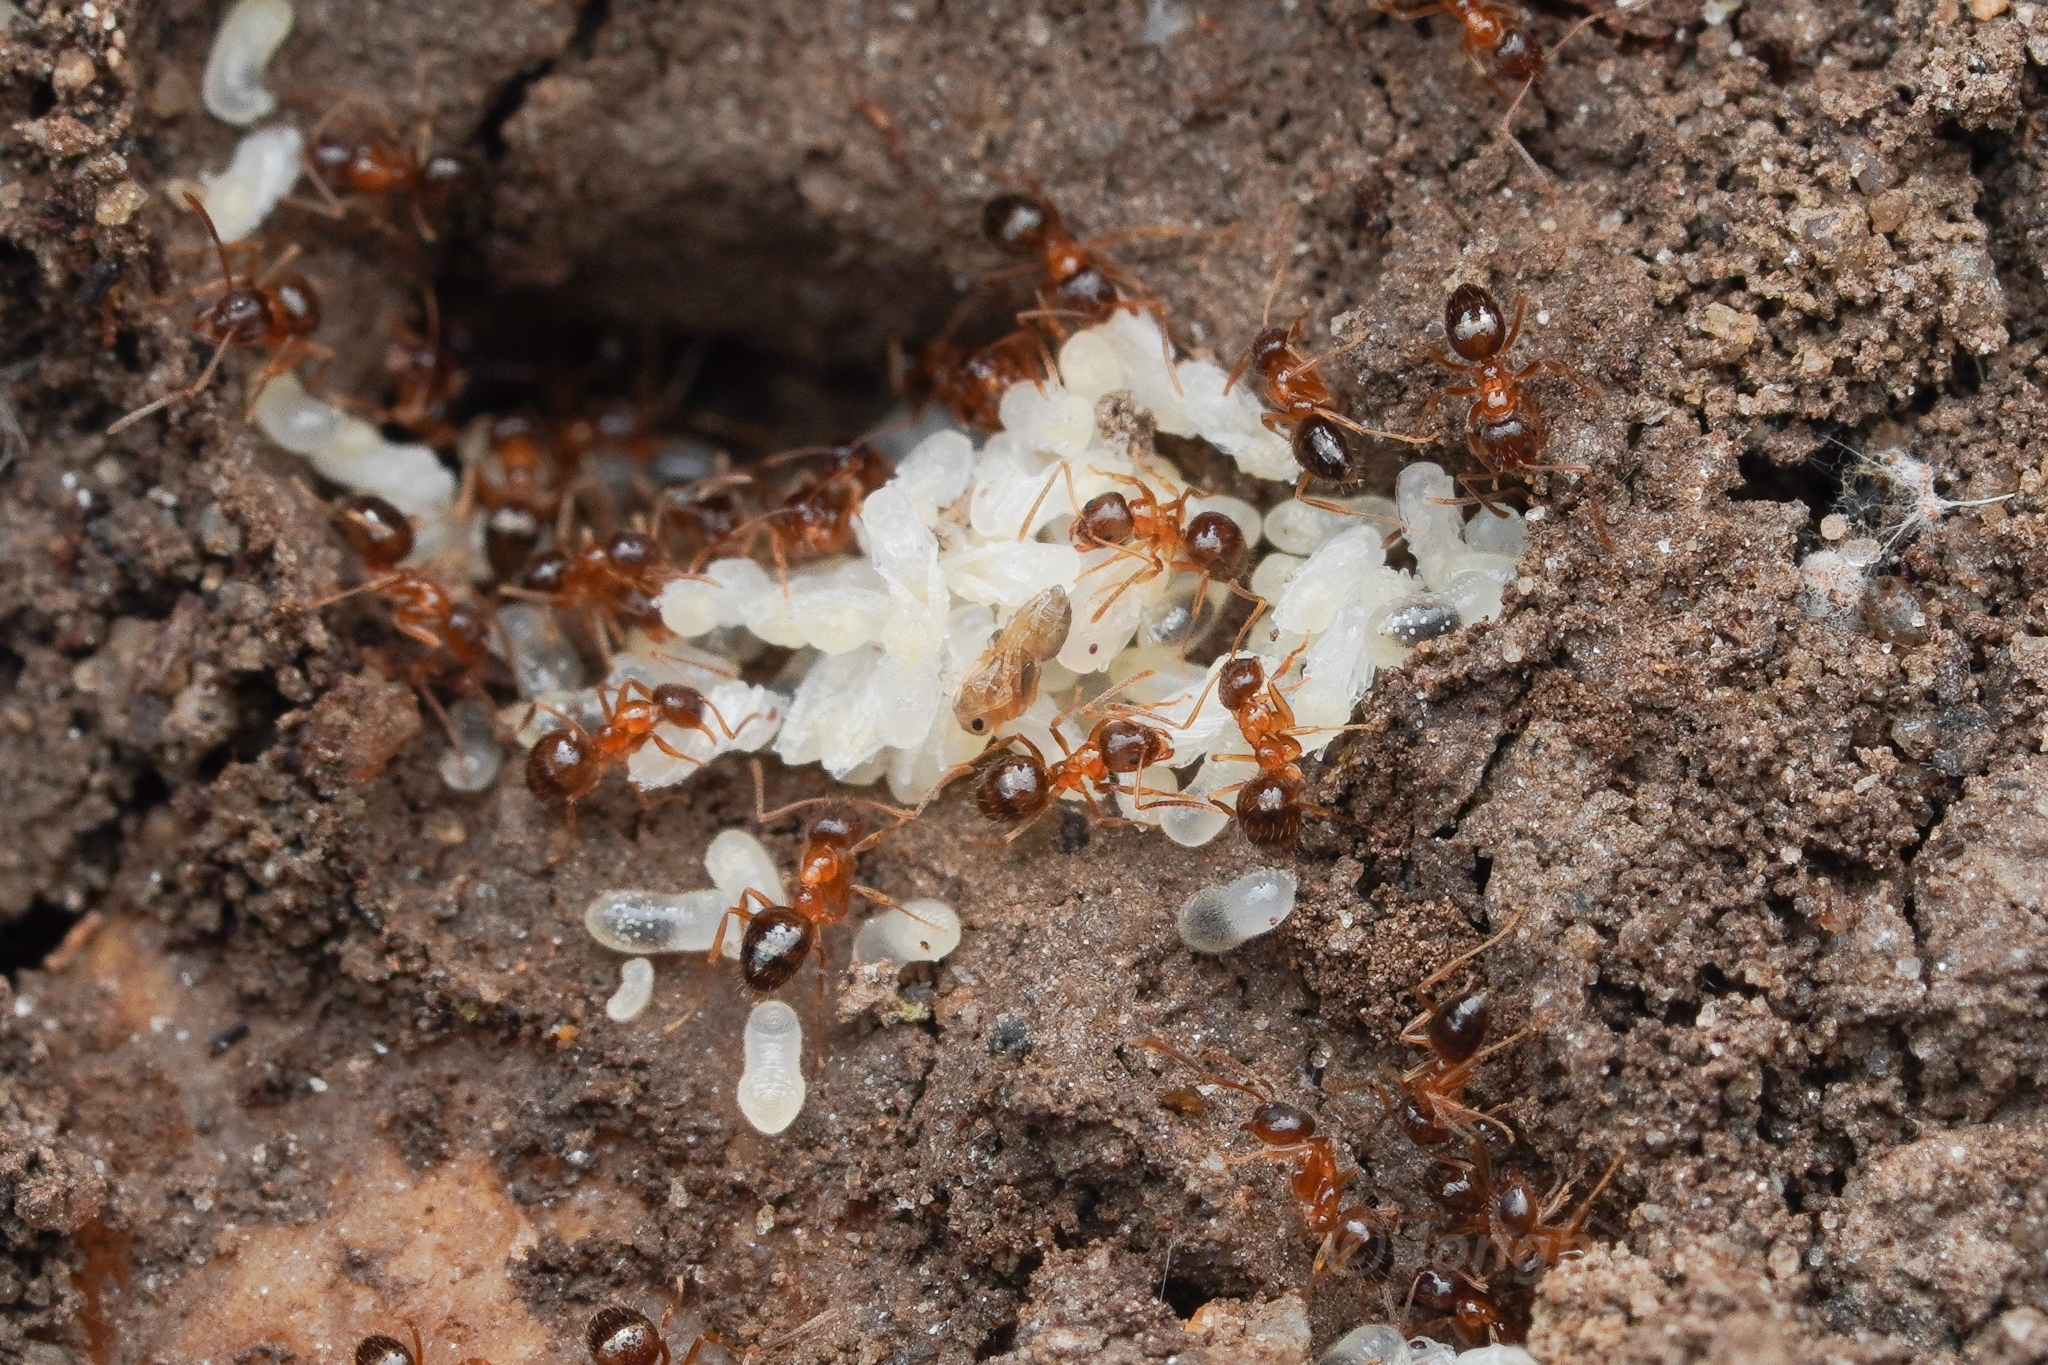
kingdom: Animalia
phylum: Arthropoda
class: Insecta
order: Hymenoptera
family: Formicidae
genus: Paratrechina
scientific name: Paratrechina flavipes
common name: Eastern asian formicine ant
